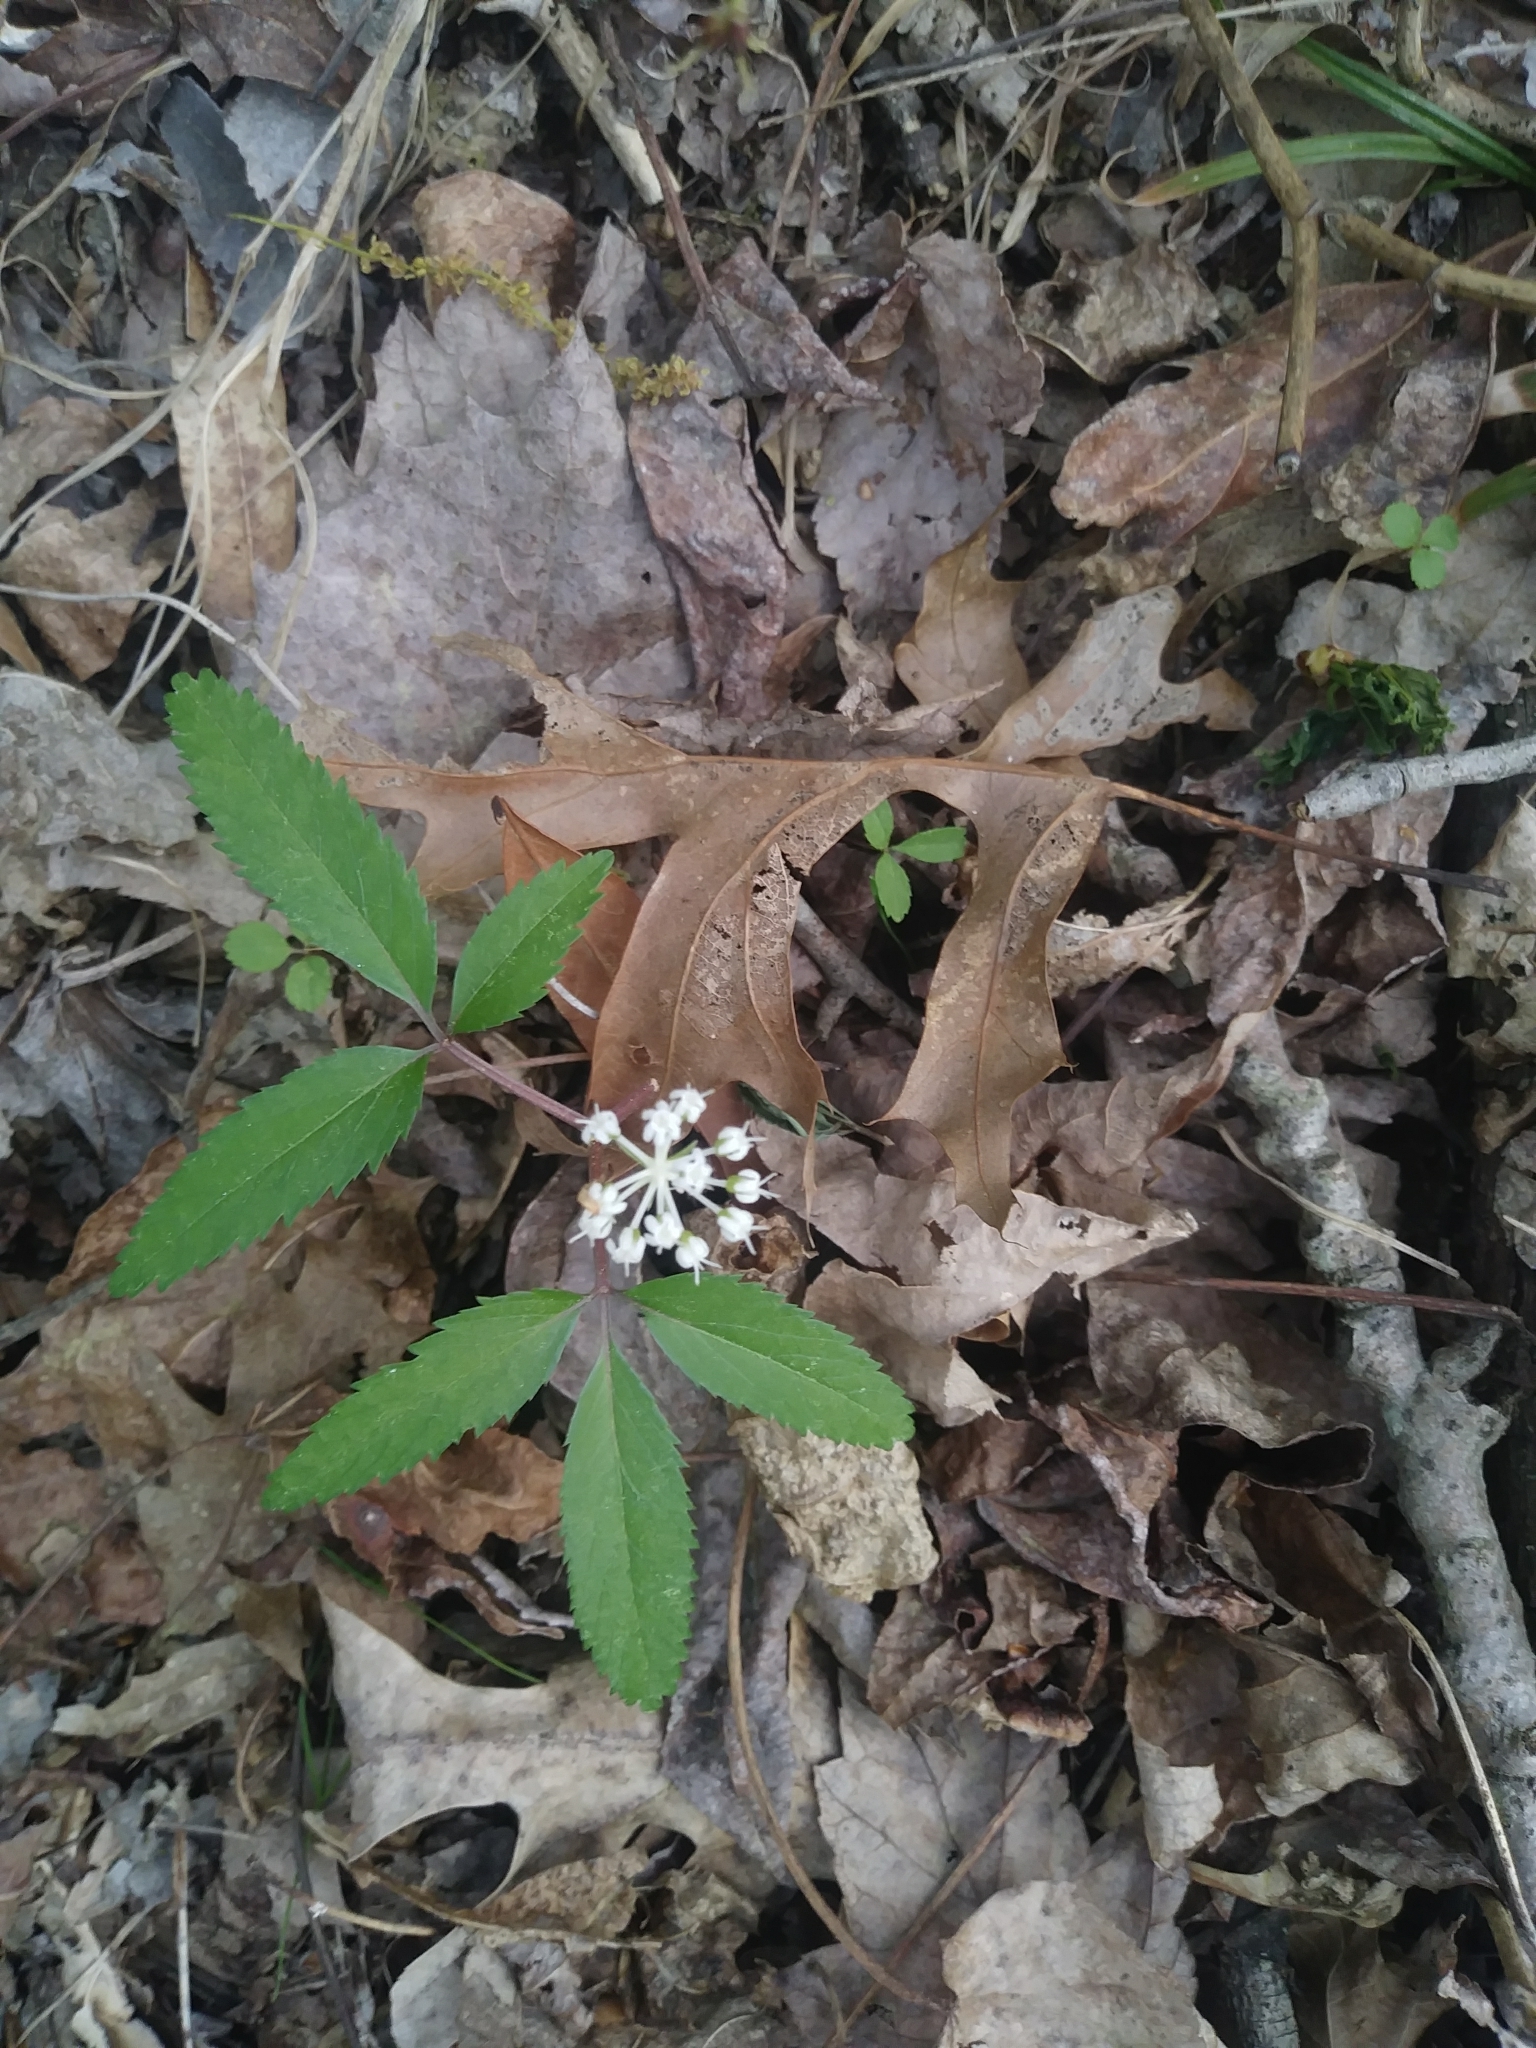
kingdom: Plantae
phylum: Tracheophyta
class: Magnoliopsida
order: Apiales
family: Araliaceae
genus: Panax
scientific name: Panax trifolius
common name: Dwarf ginseng
